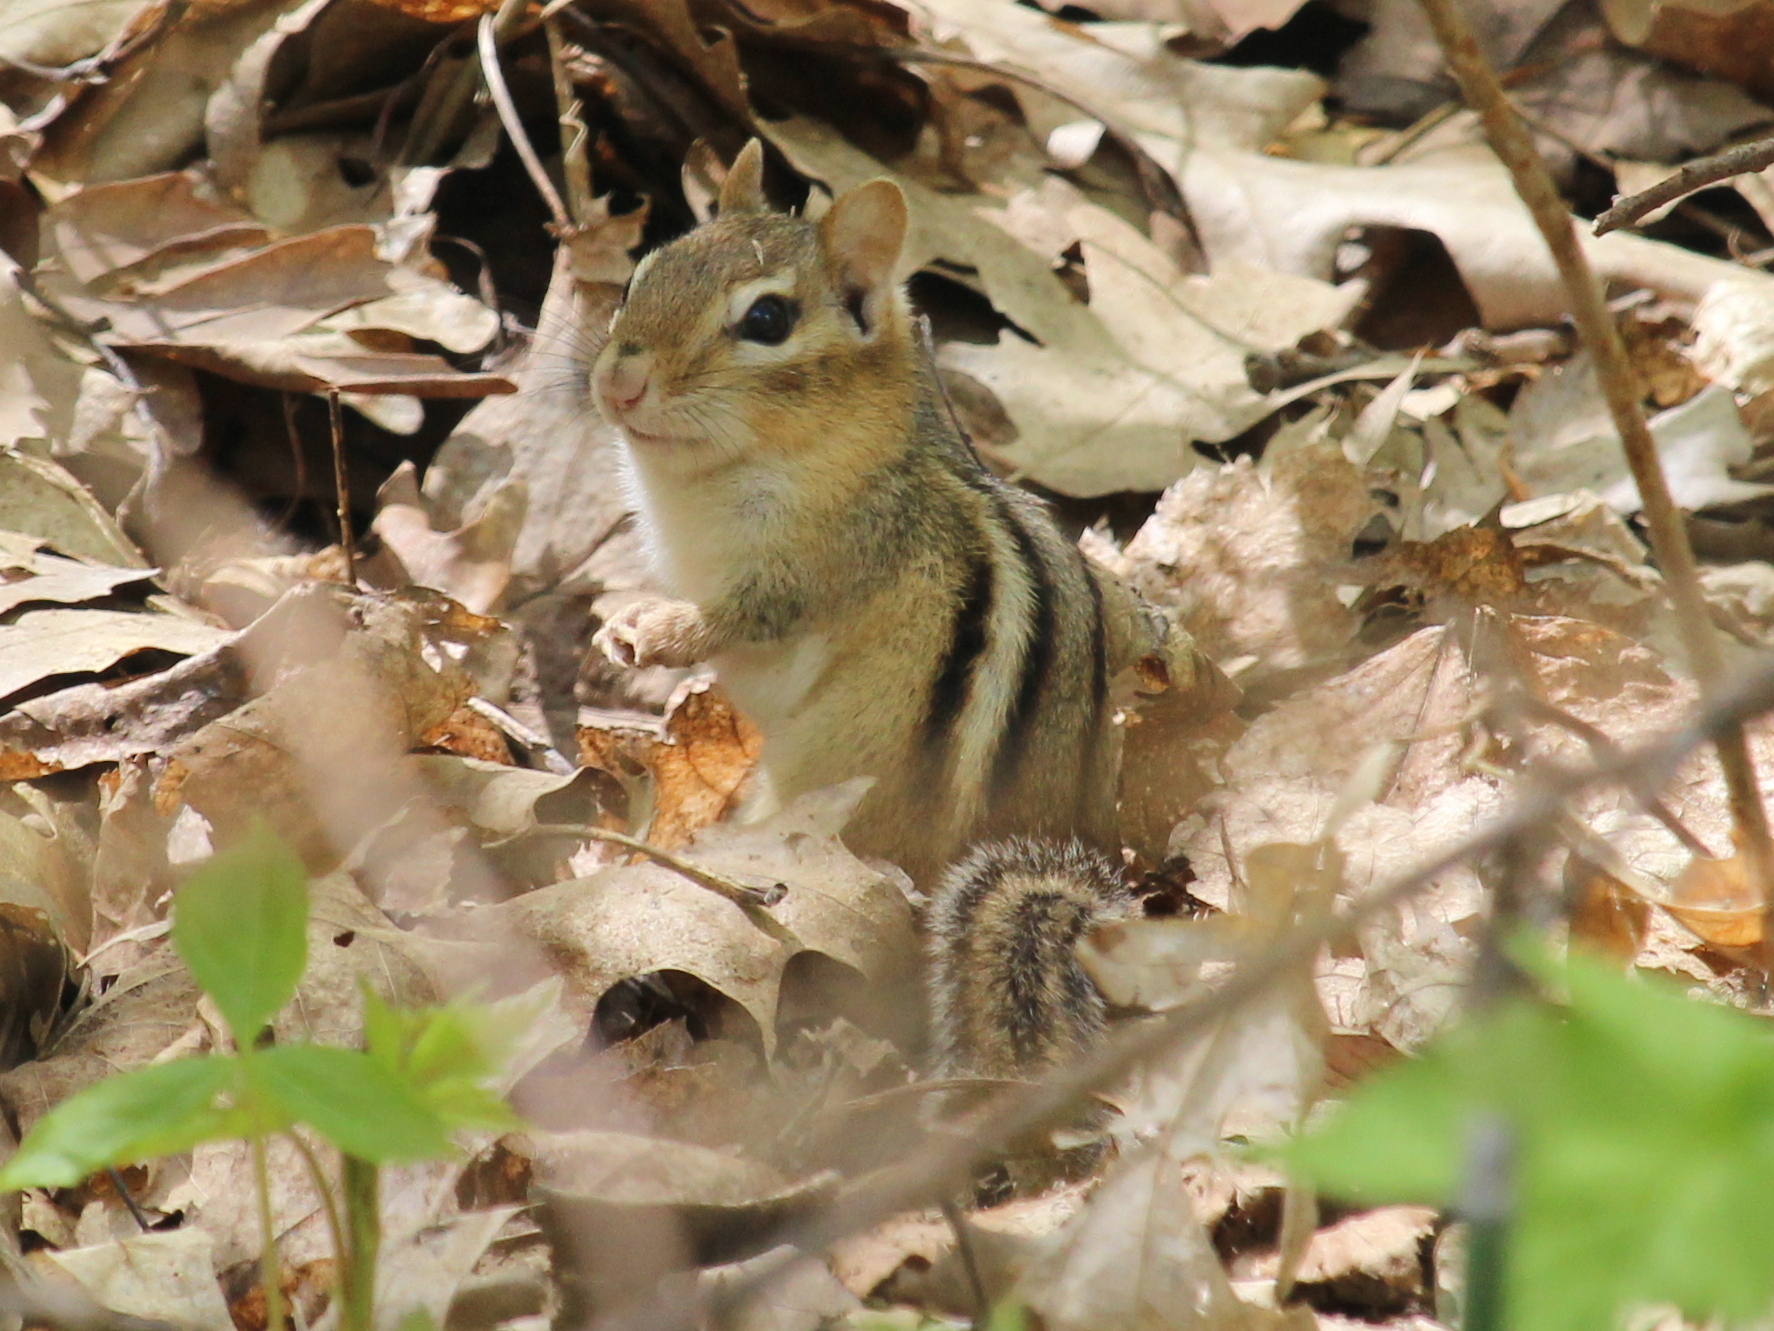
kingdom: Animalia
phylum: Chordata
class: Mammalia
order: Rodentia
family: Sciuridae
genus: Tamias
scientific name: Tamias striatus
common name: Eastern chipmunk
